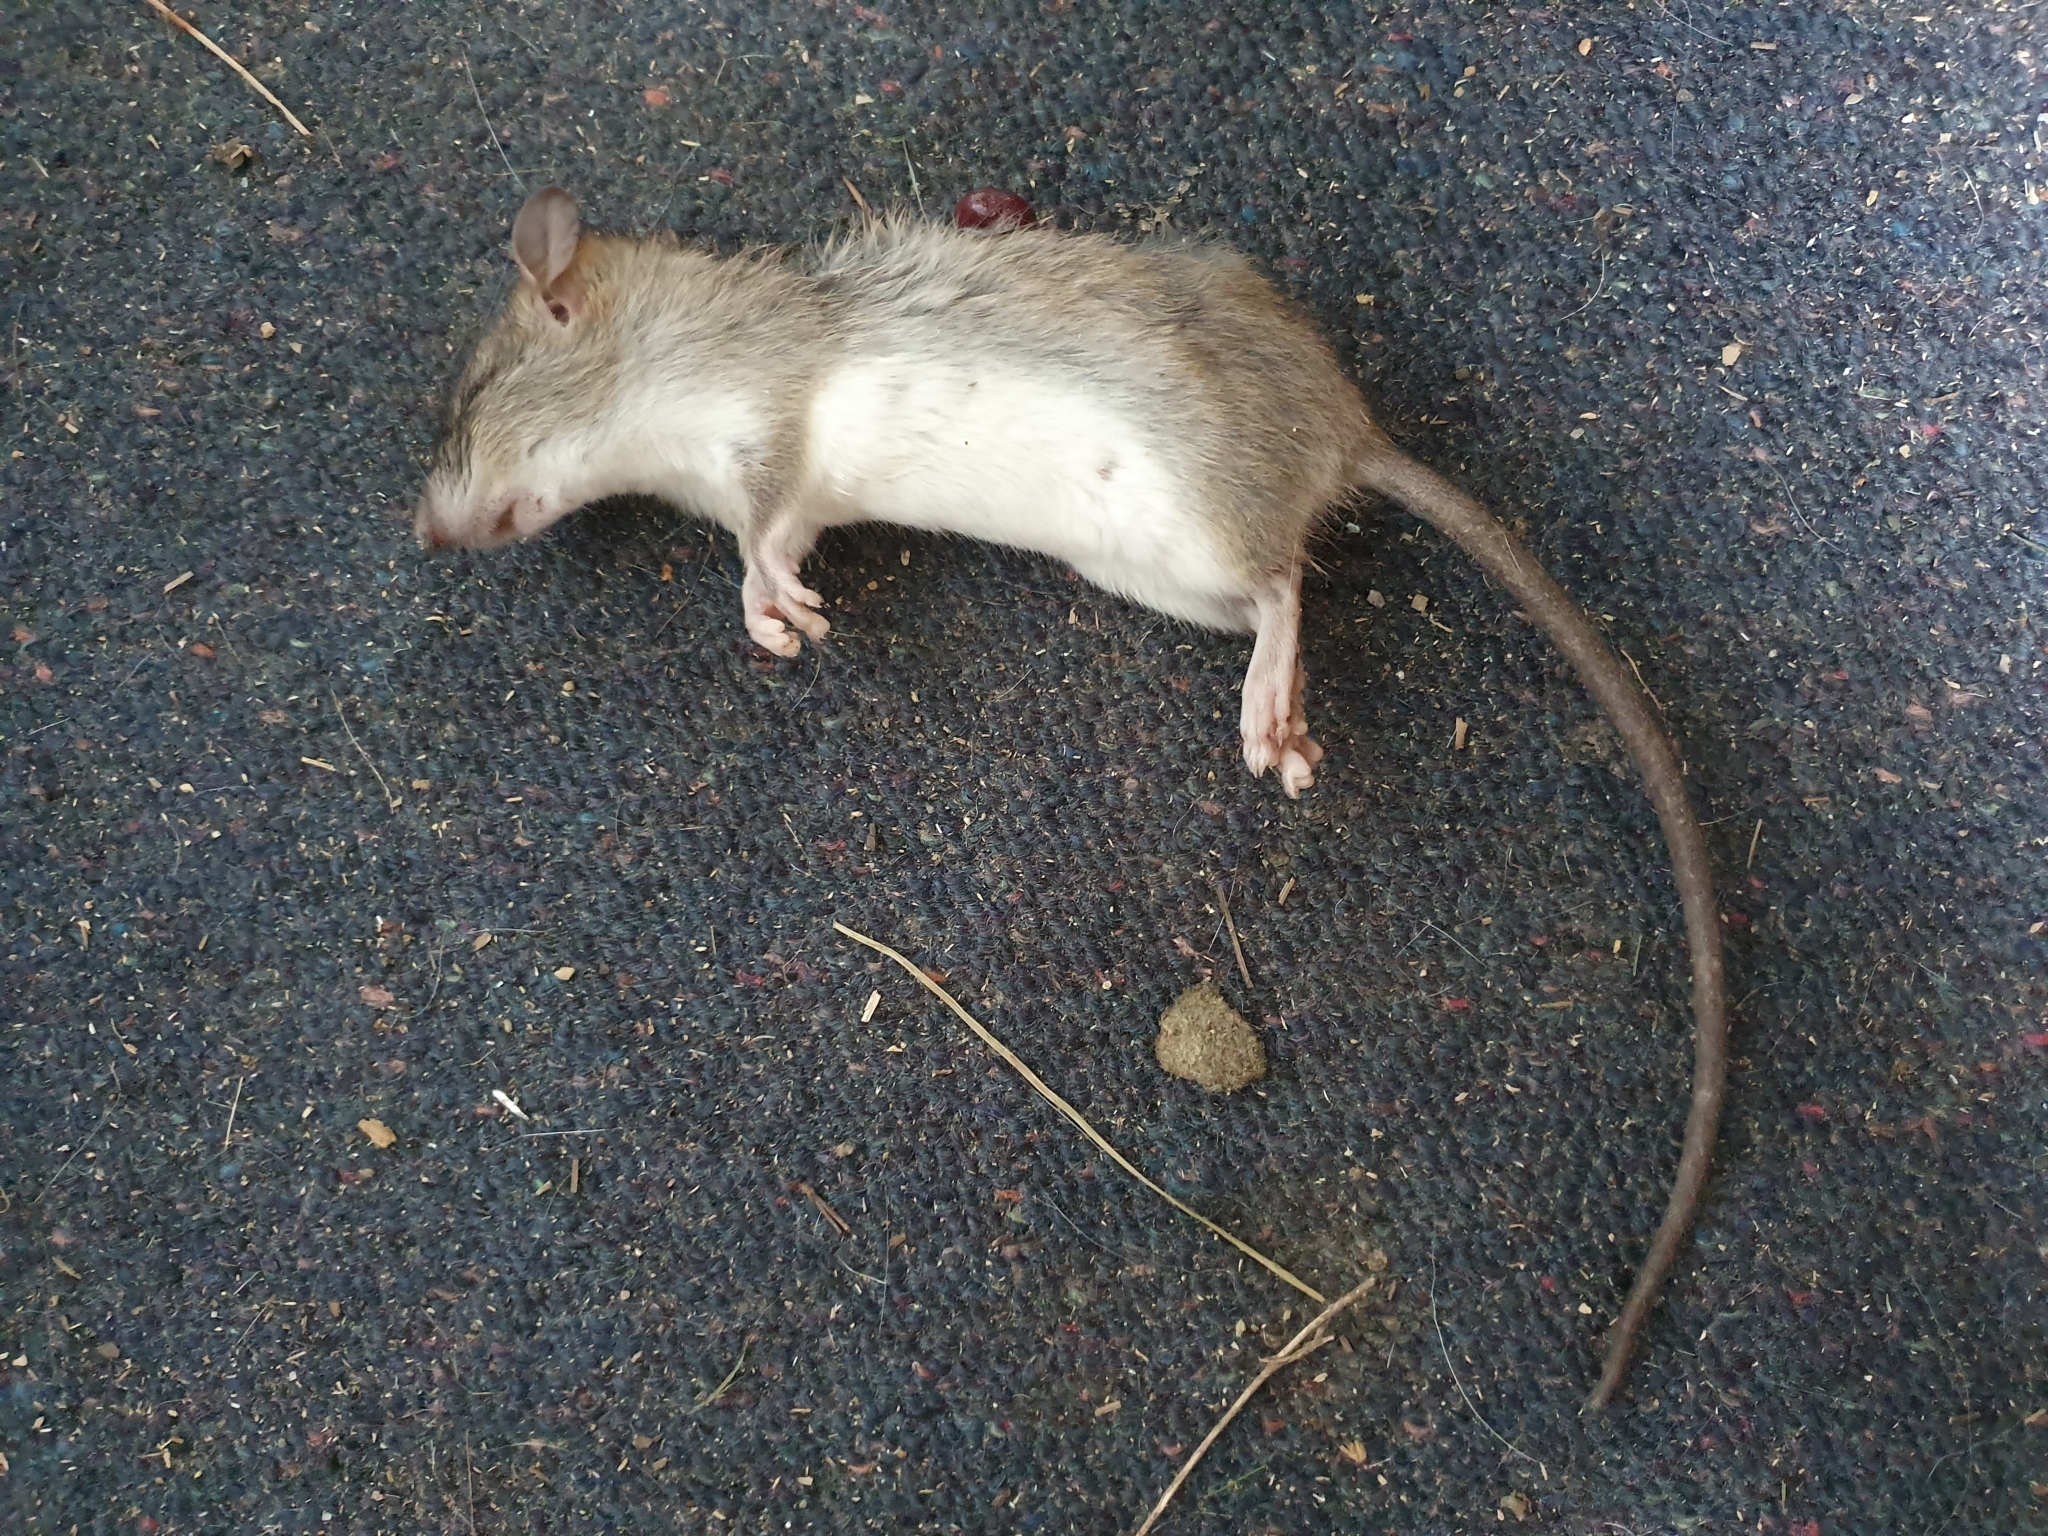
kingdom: Animalia
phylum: Chordata
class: Mammalia
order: Rodentia
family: Muridae
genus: Rattus
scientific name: Rattus rattus
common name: Black rat
